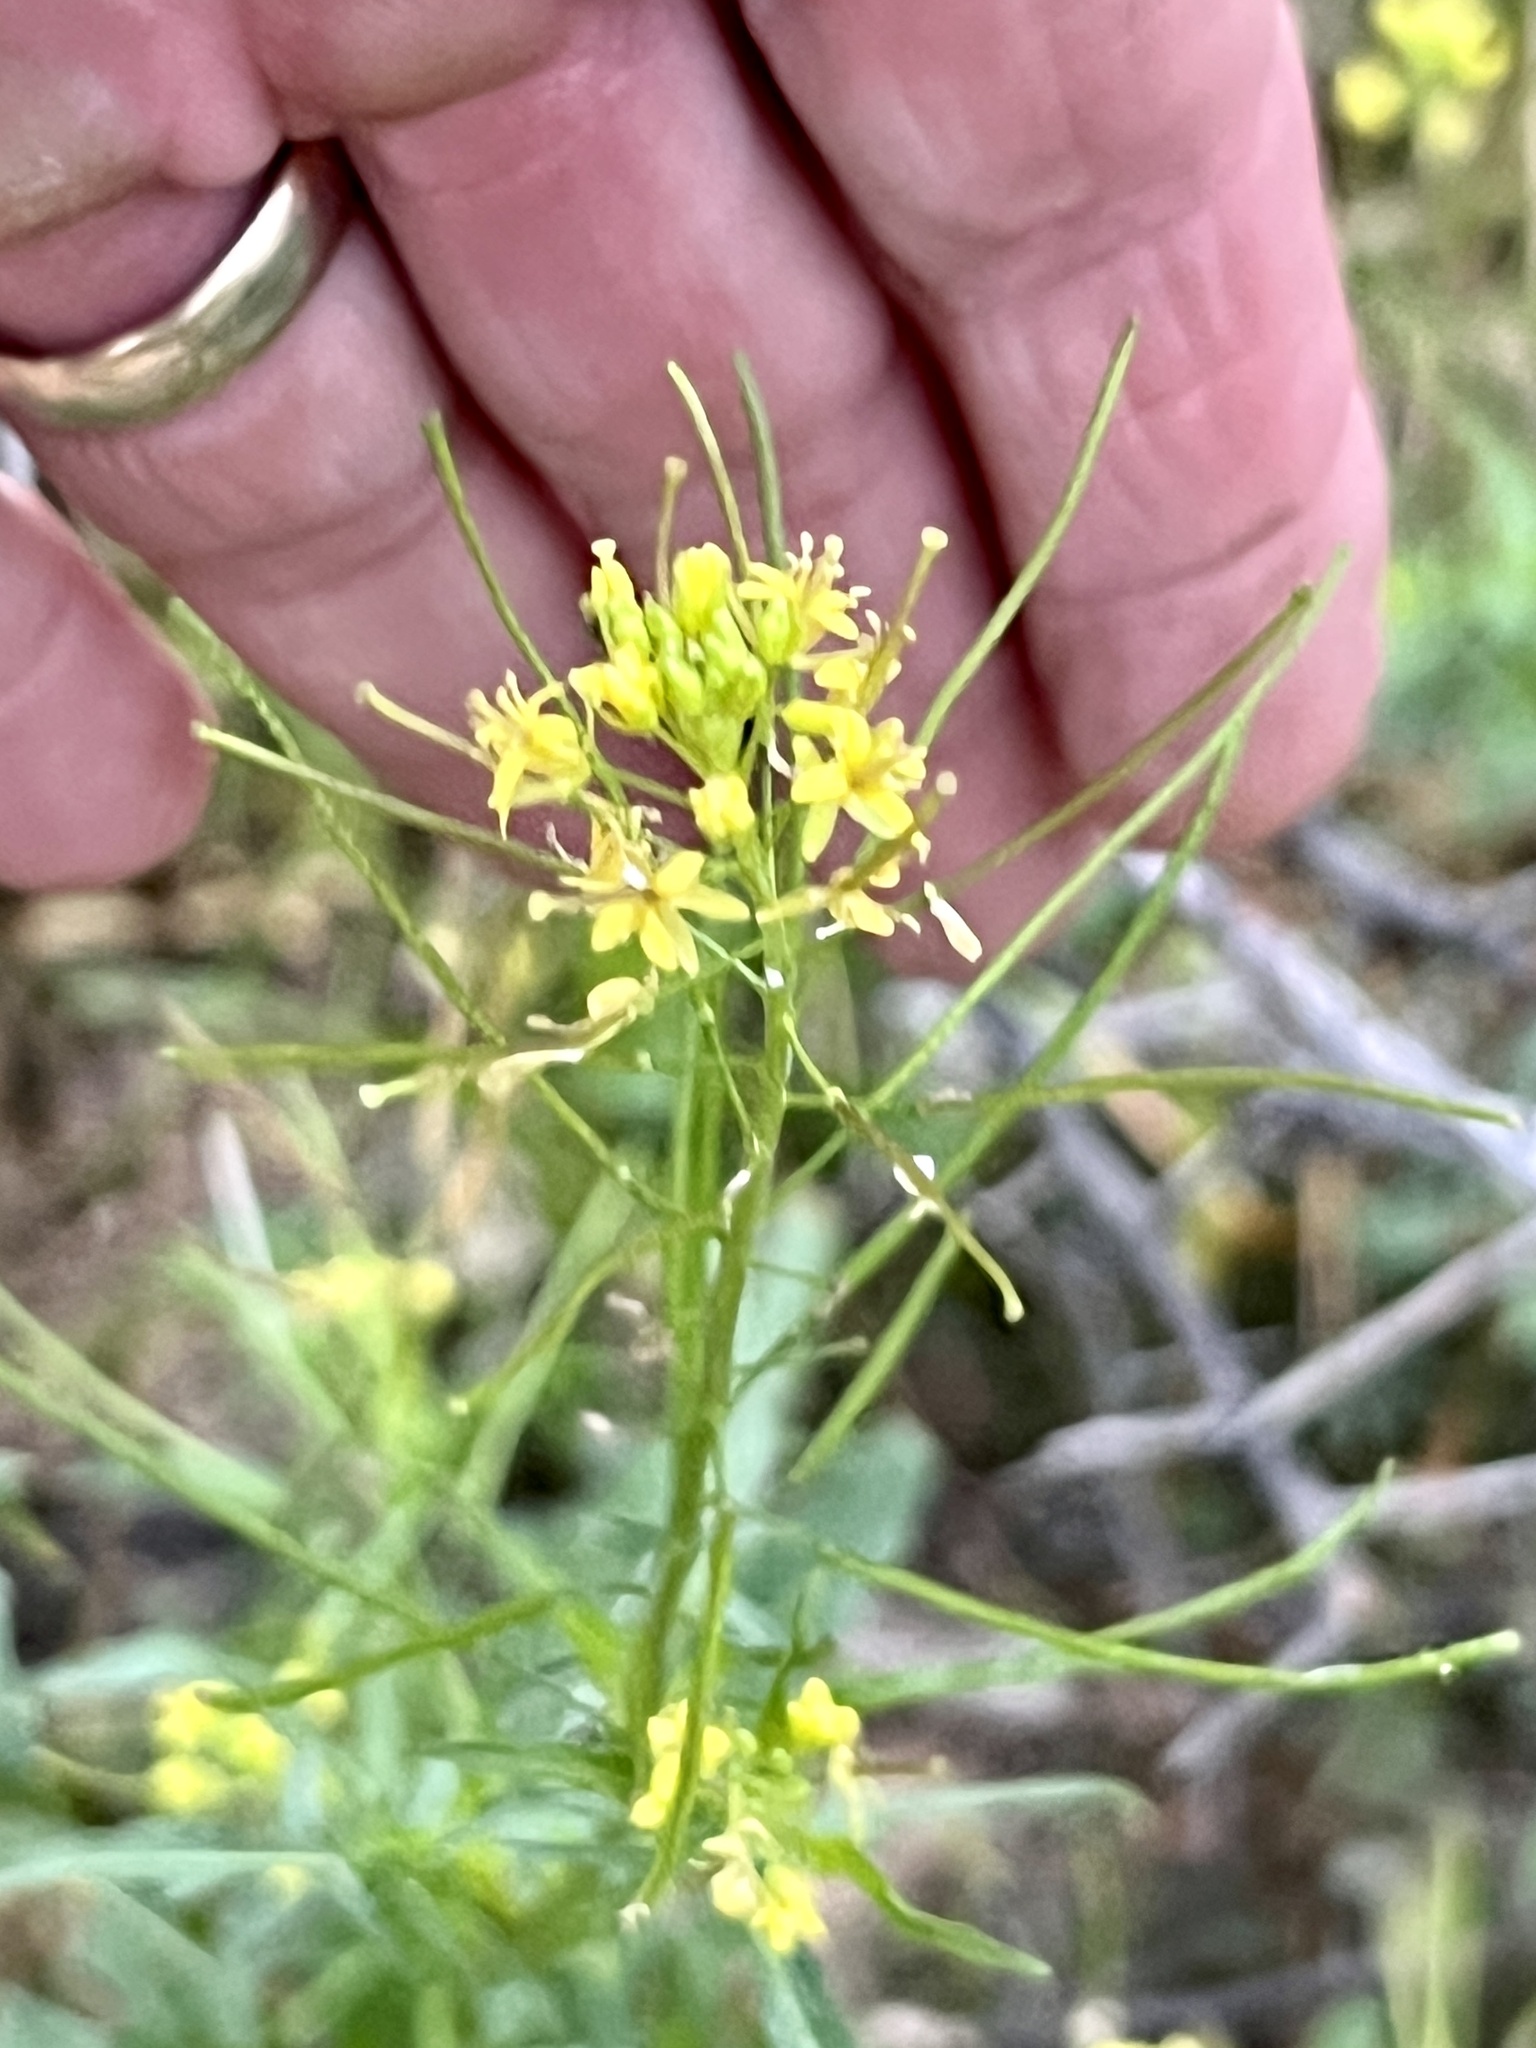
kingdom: Plantae
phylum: Tracheophyta
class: Magnoliopsida
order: Brassicales
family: Brassicaceae
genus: Sisymbrium
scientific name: Sisymbrium irio
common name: London rocket
